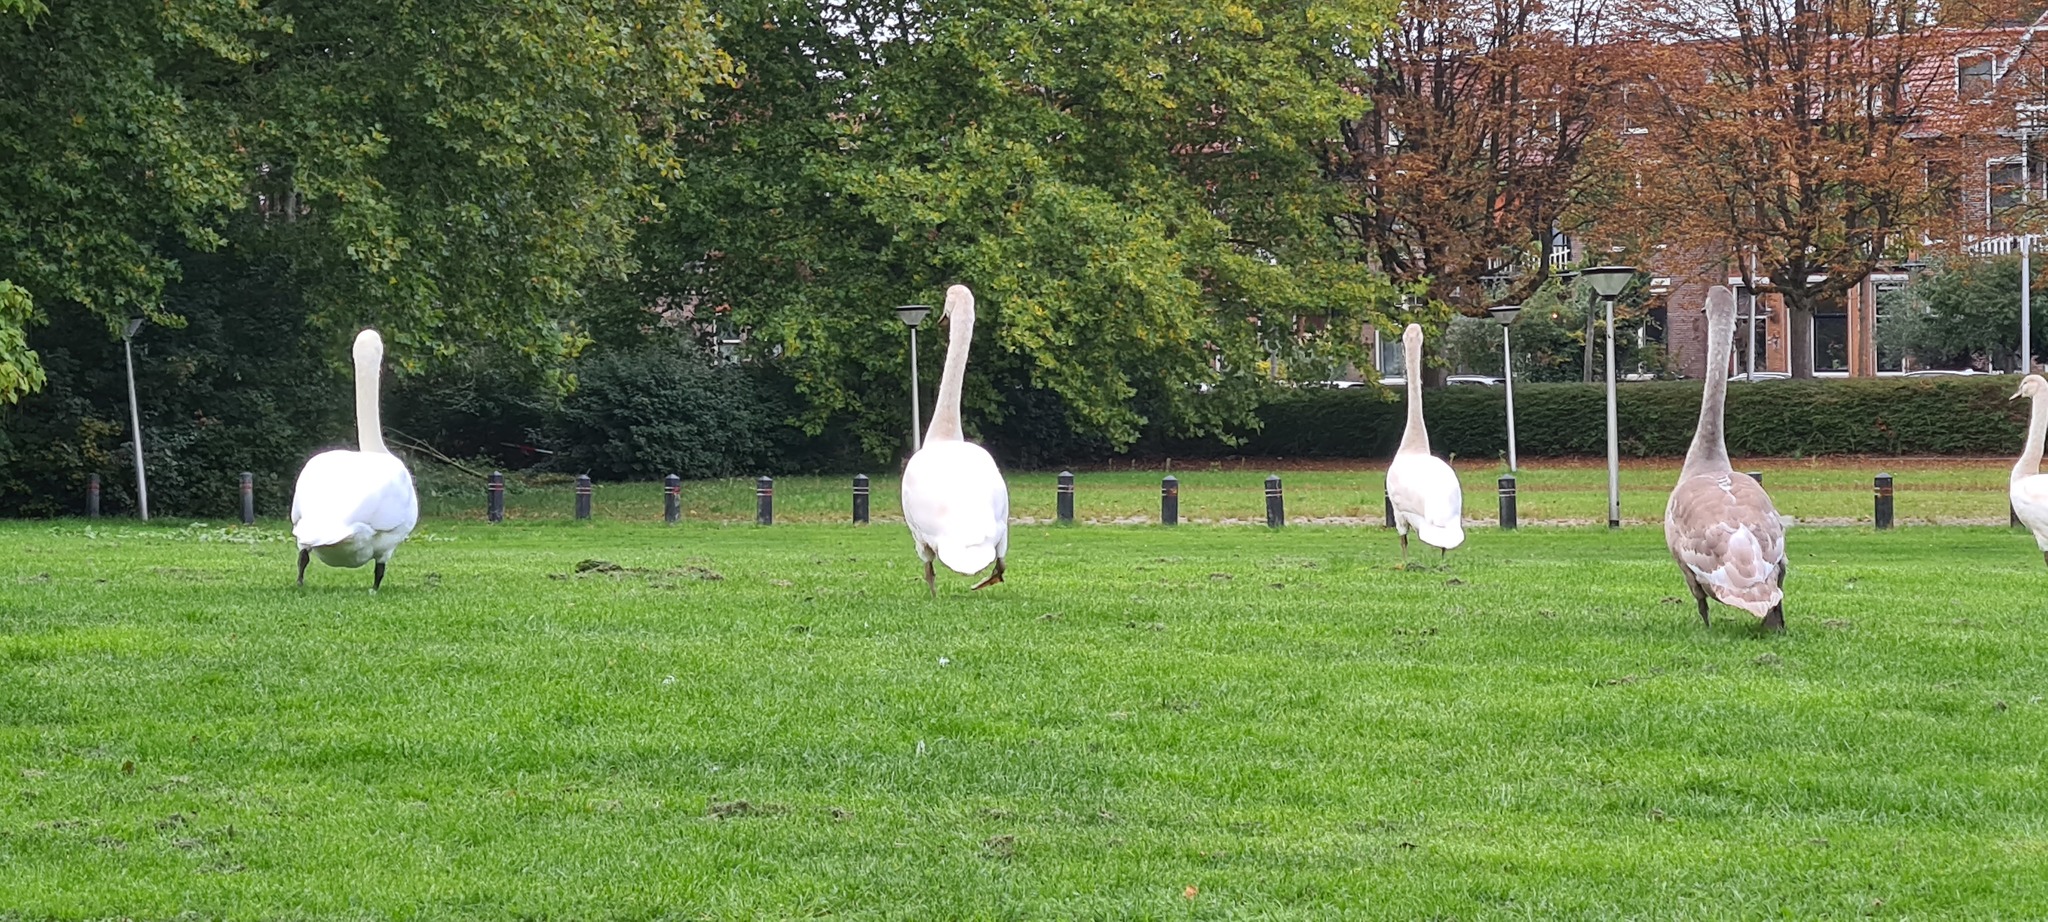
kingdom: Animalia
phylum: Chordata
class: Aves
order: Anseriformes
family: Anatidae
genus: Cygnus
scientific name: Cygnus olor
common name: Mute swan
